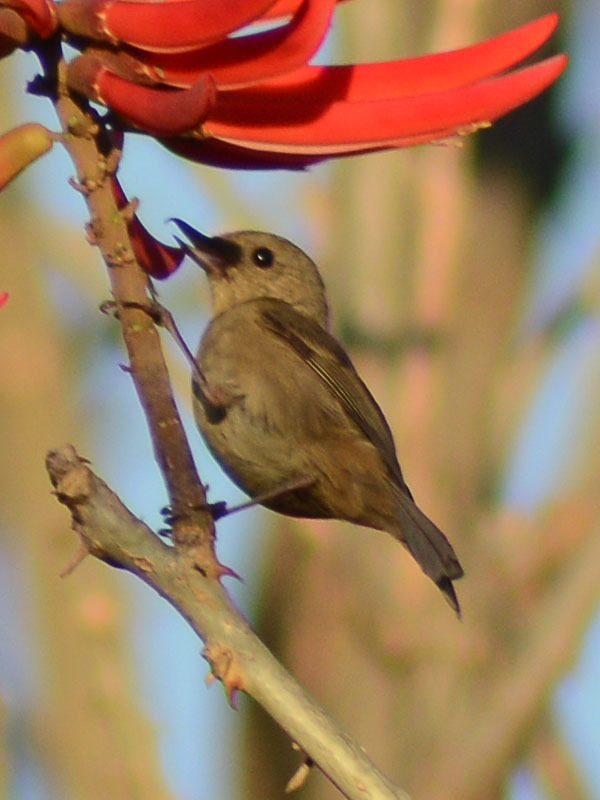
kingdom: Animalia
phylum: Chordata
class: Aves
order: Passeriformes
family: Thraupidae
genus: Diglossa
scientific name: Diglossa baritula
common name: Cinnamon-bellied flowerpiercer
